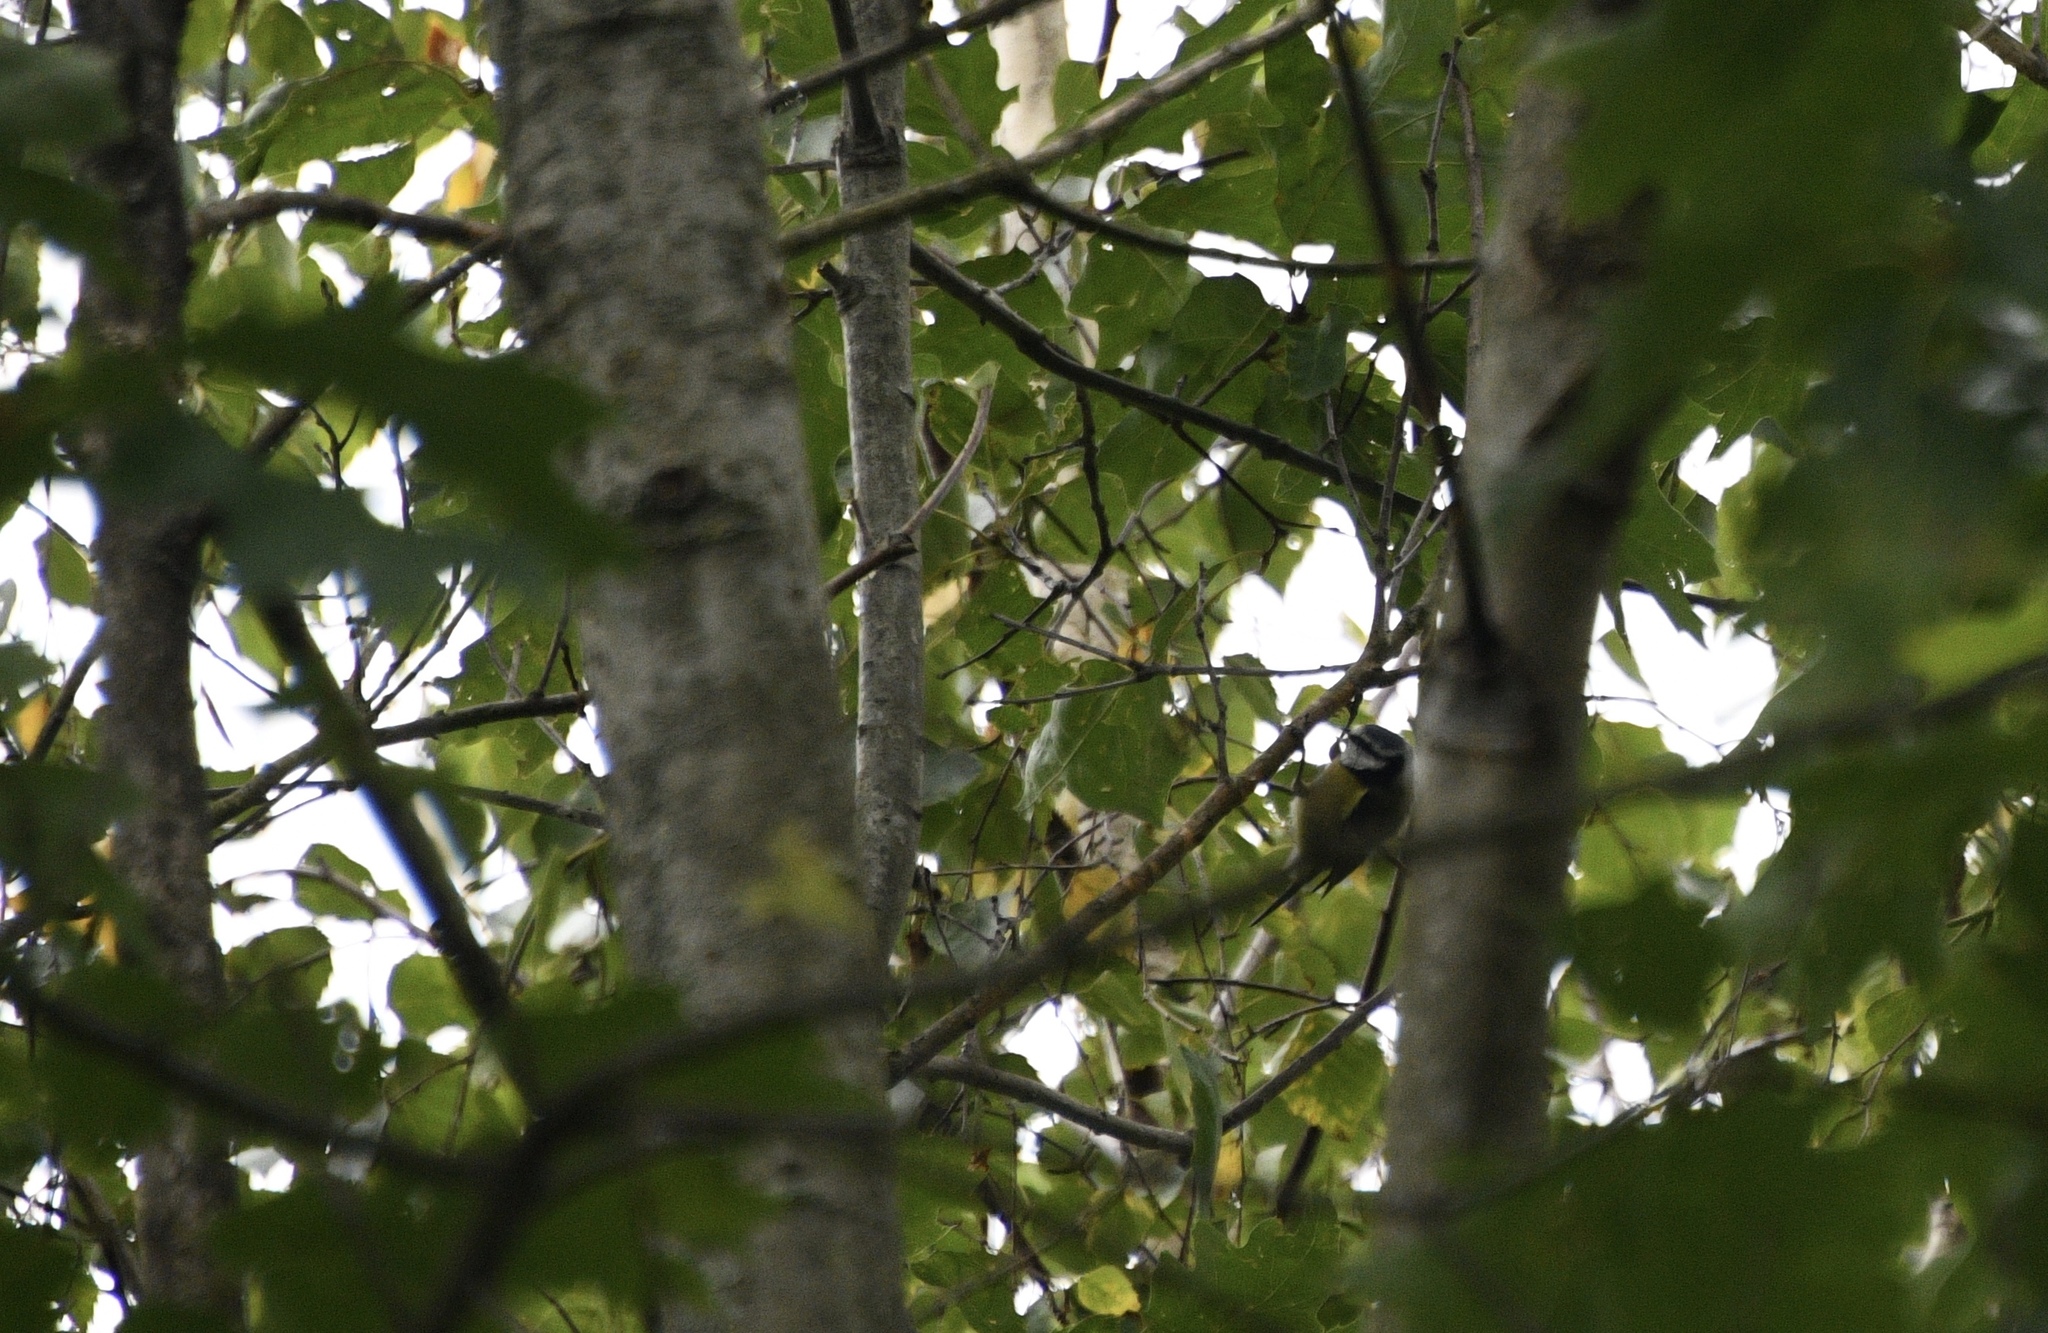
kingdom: Animalia
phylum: Chordata
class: Aves
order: Passeriformes
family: Paridae
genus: Cyanistes
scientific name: Cyanistes caeruleus
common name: Eurasian blue tit
